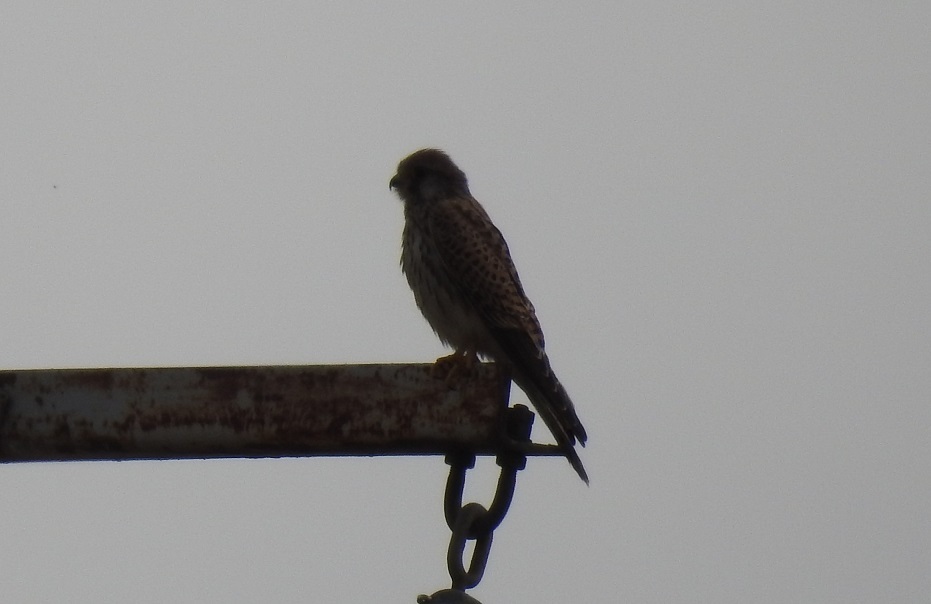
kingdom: Animalia
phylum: Chordata
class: Aves
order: Falconiformes
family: Falconidae
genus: Falco
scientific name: Falco tinnunculus
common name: Common kestrel
